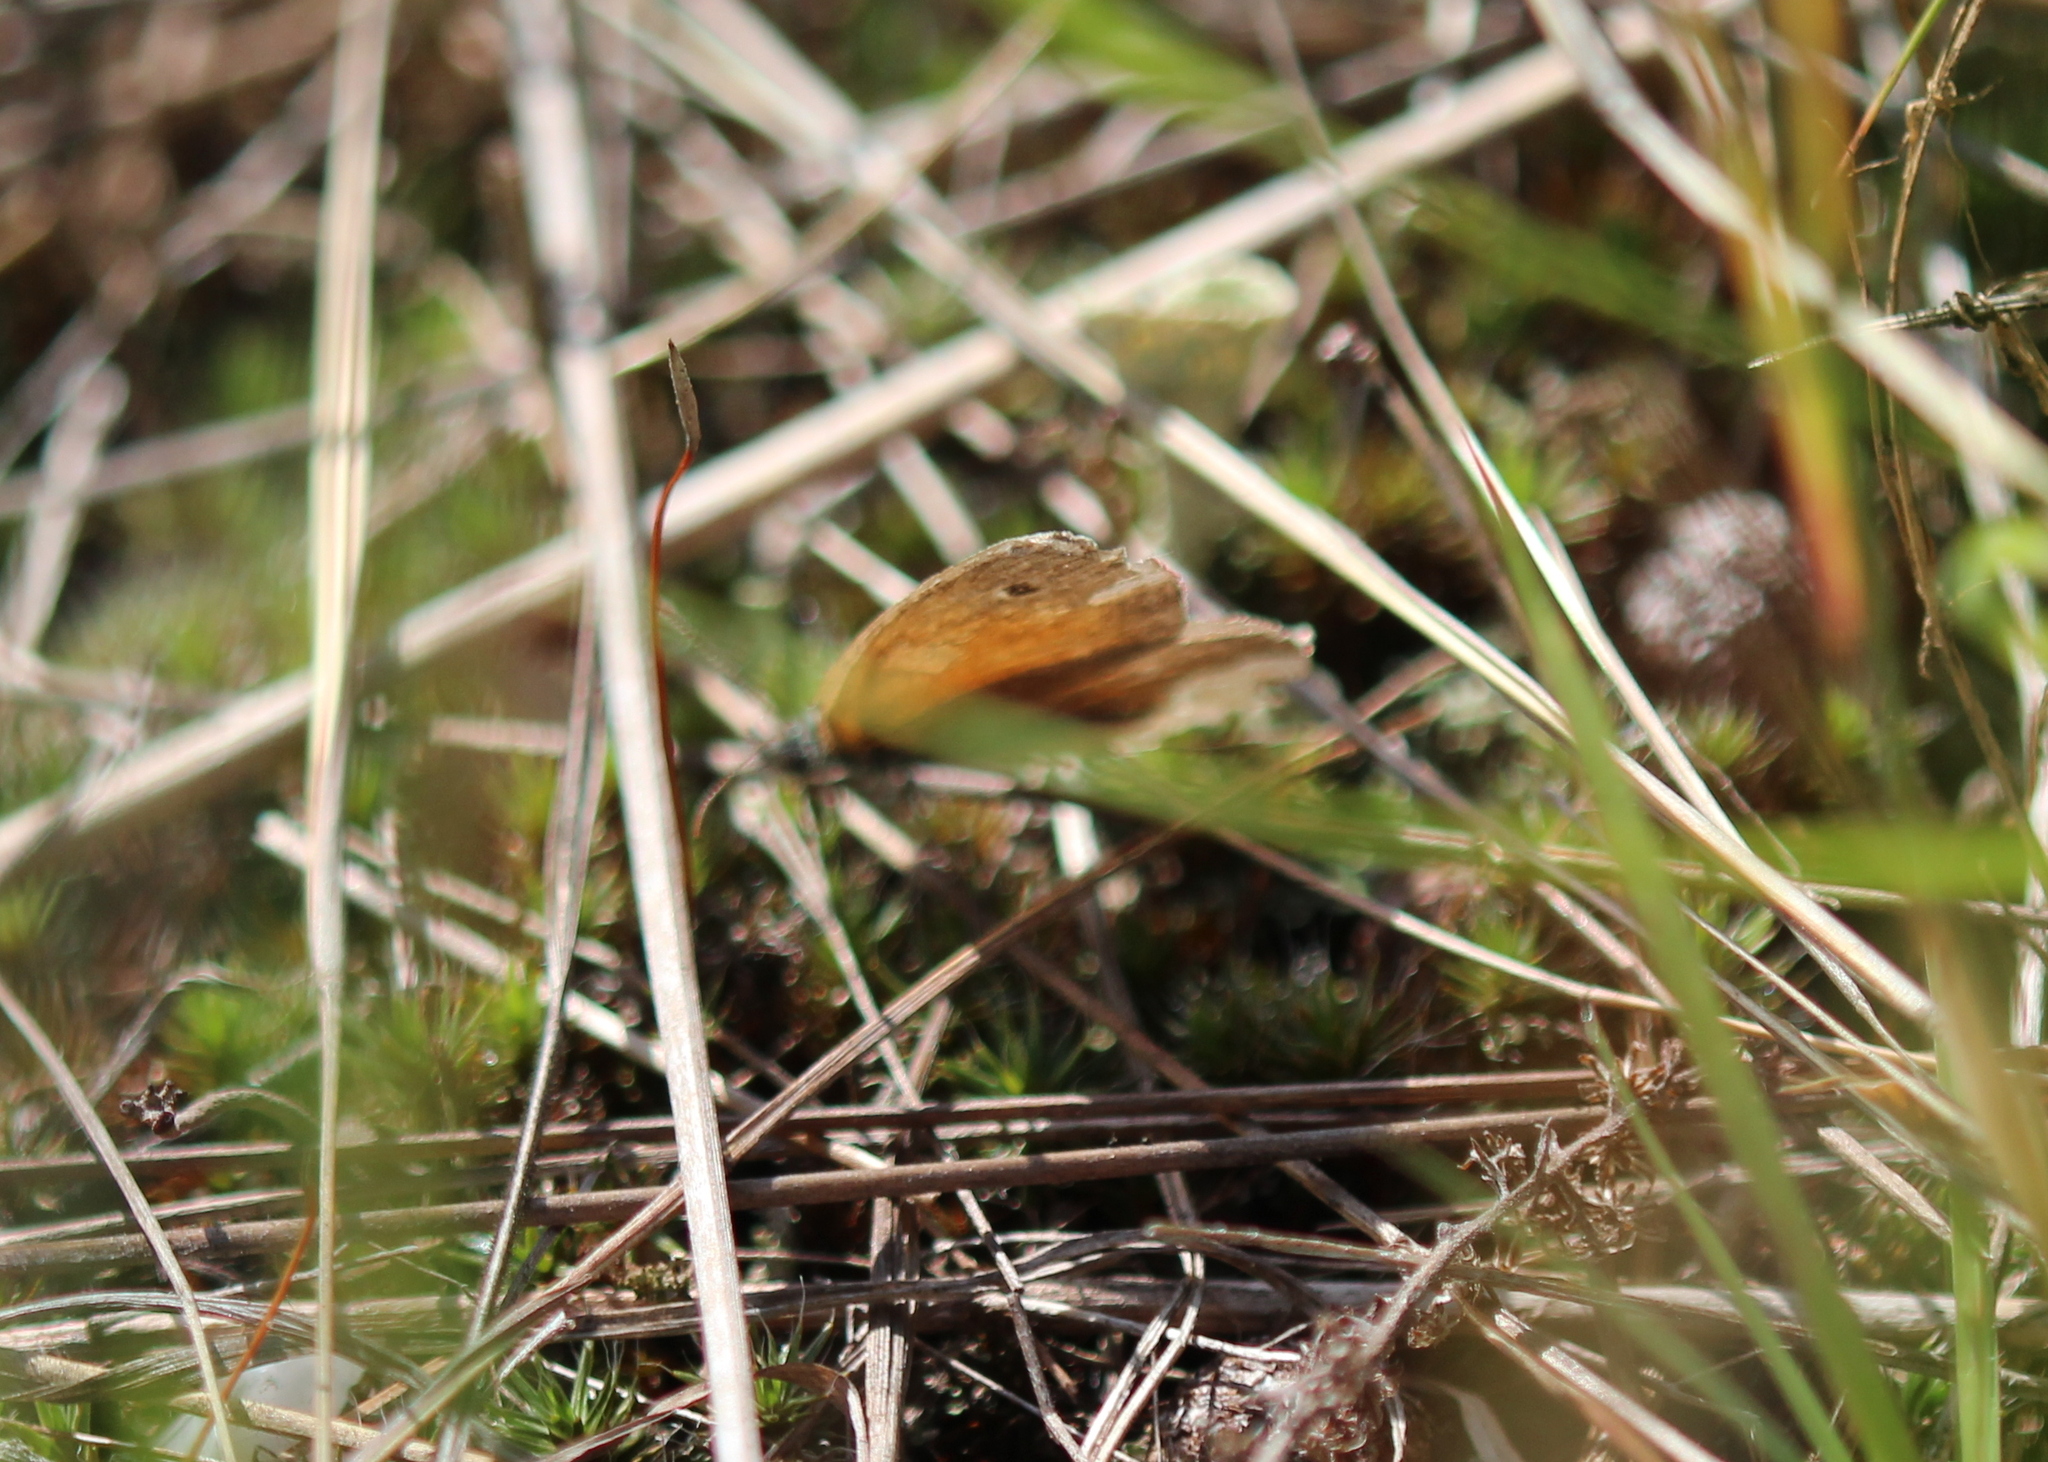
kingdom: Animalia
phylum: Arthropoda
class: Insecta
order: Lepidoptera
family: Nymphalidae
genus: Coenonympha
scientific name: Coenonympha california
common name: Common ringlet
